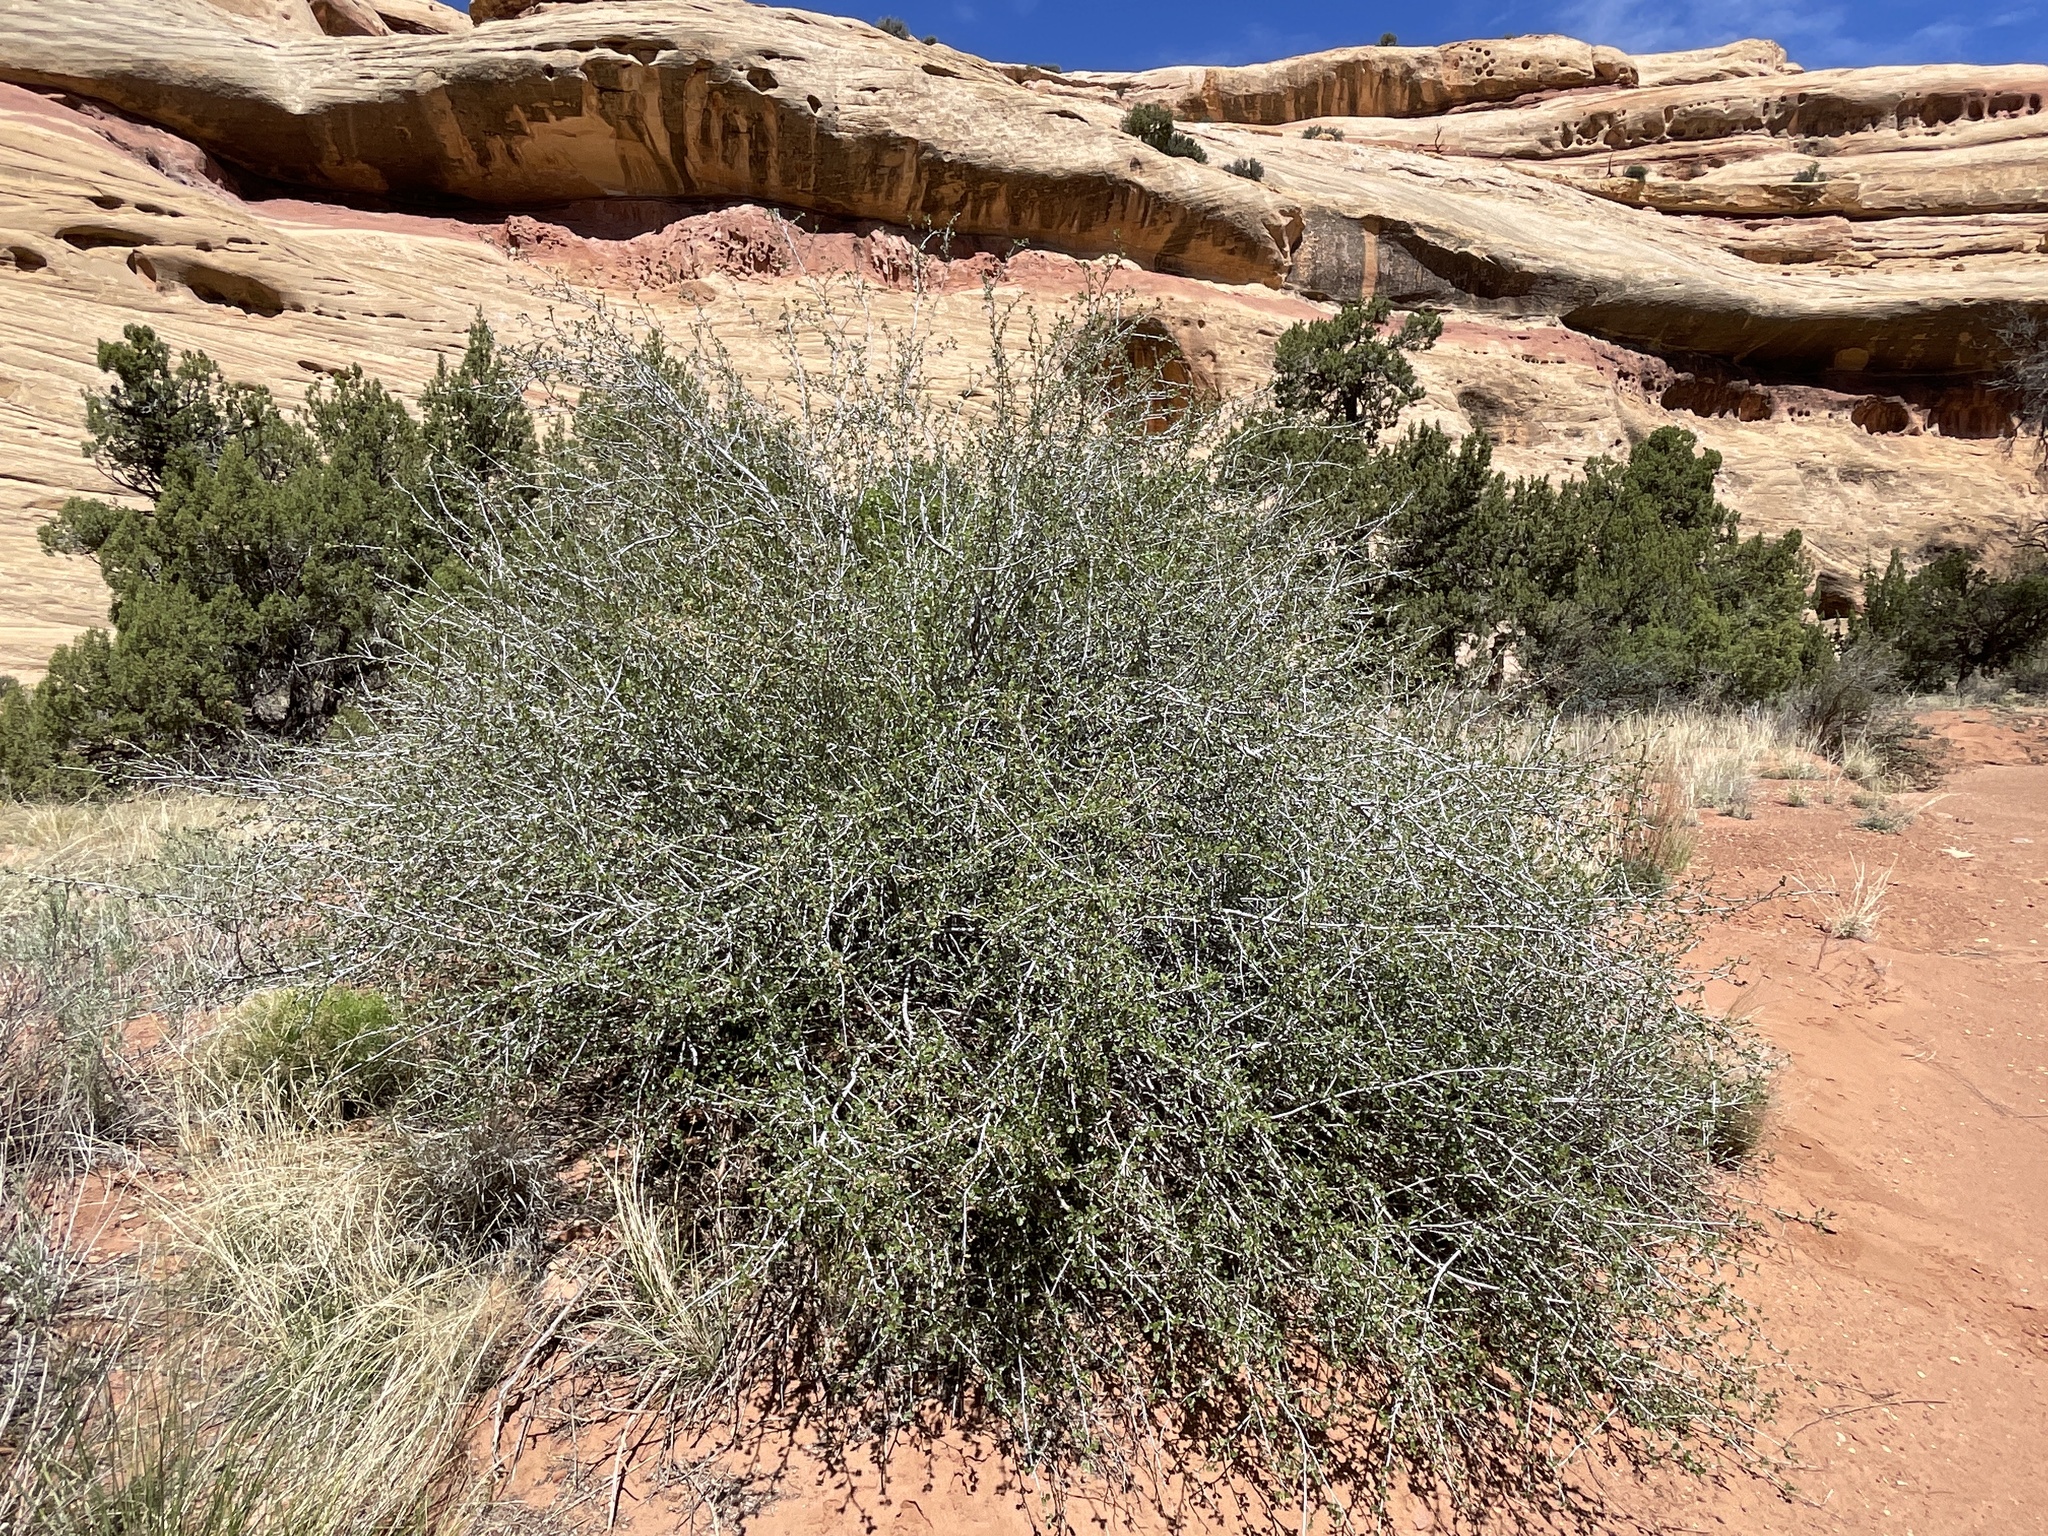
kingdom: Plantae
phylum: Tracheophyta
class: Magnoliopsida
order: Rosales
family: Rosaceae
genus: Cercocarpus
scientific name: Cercocarpus montanus
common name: Alder-leaf cercocarpus
